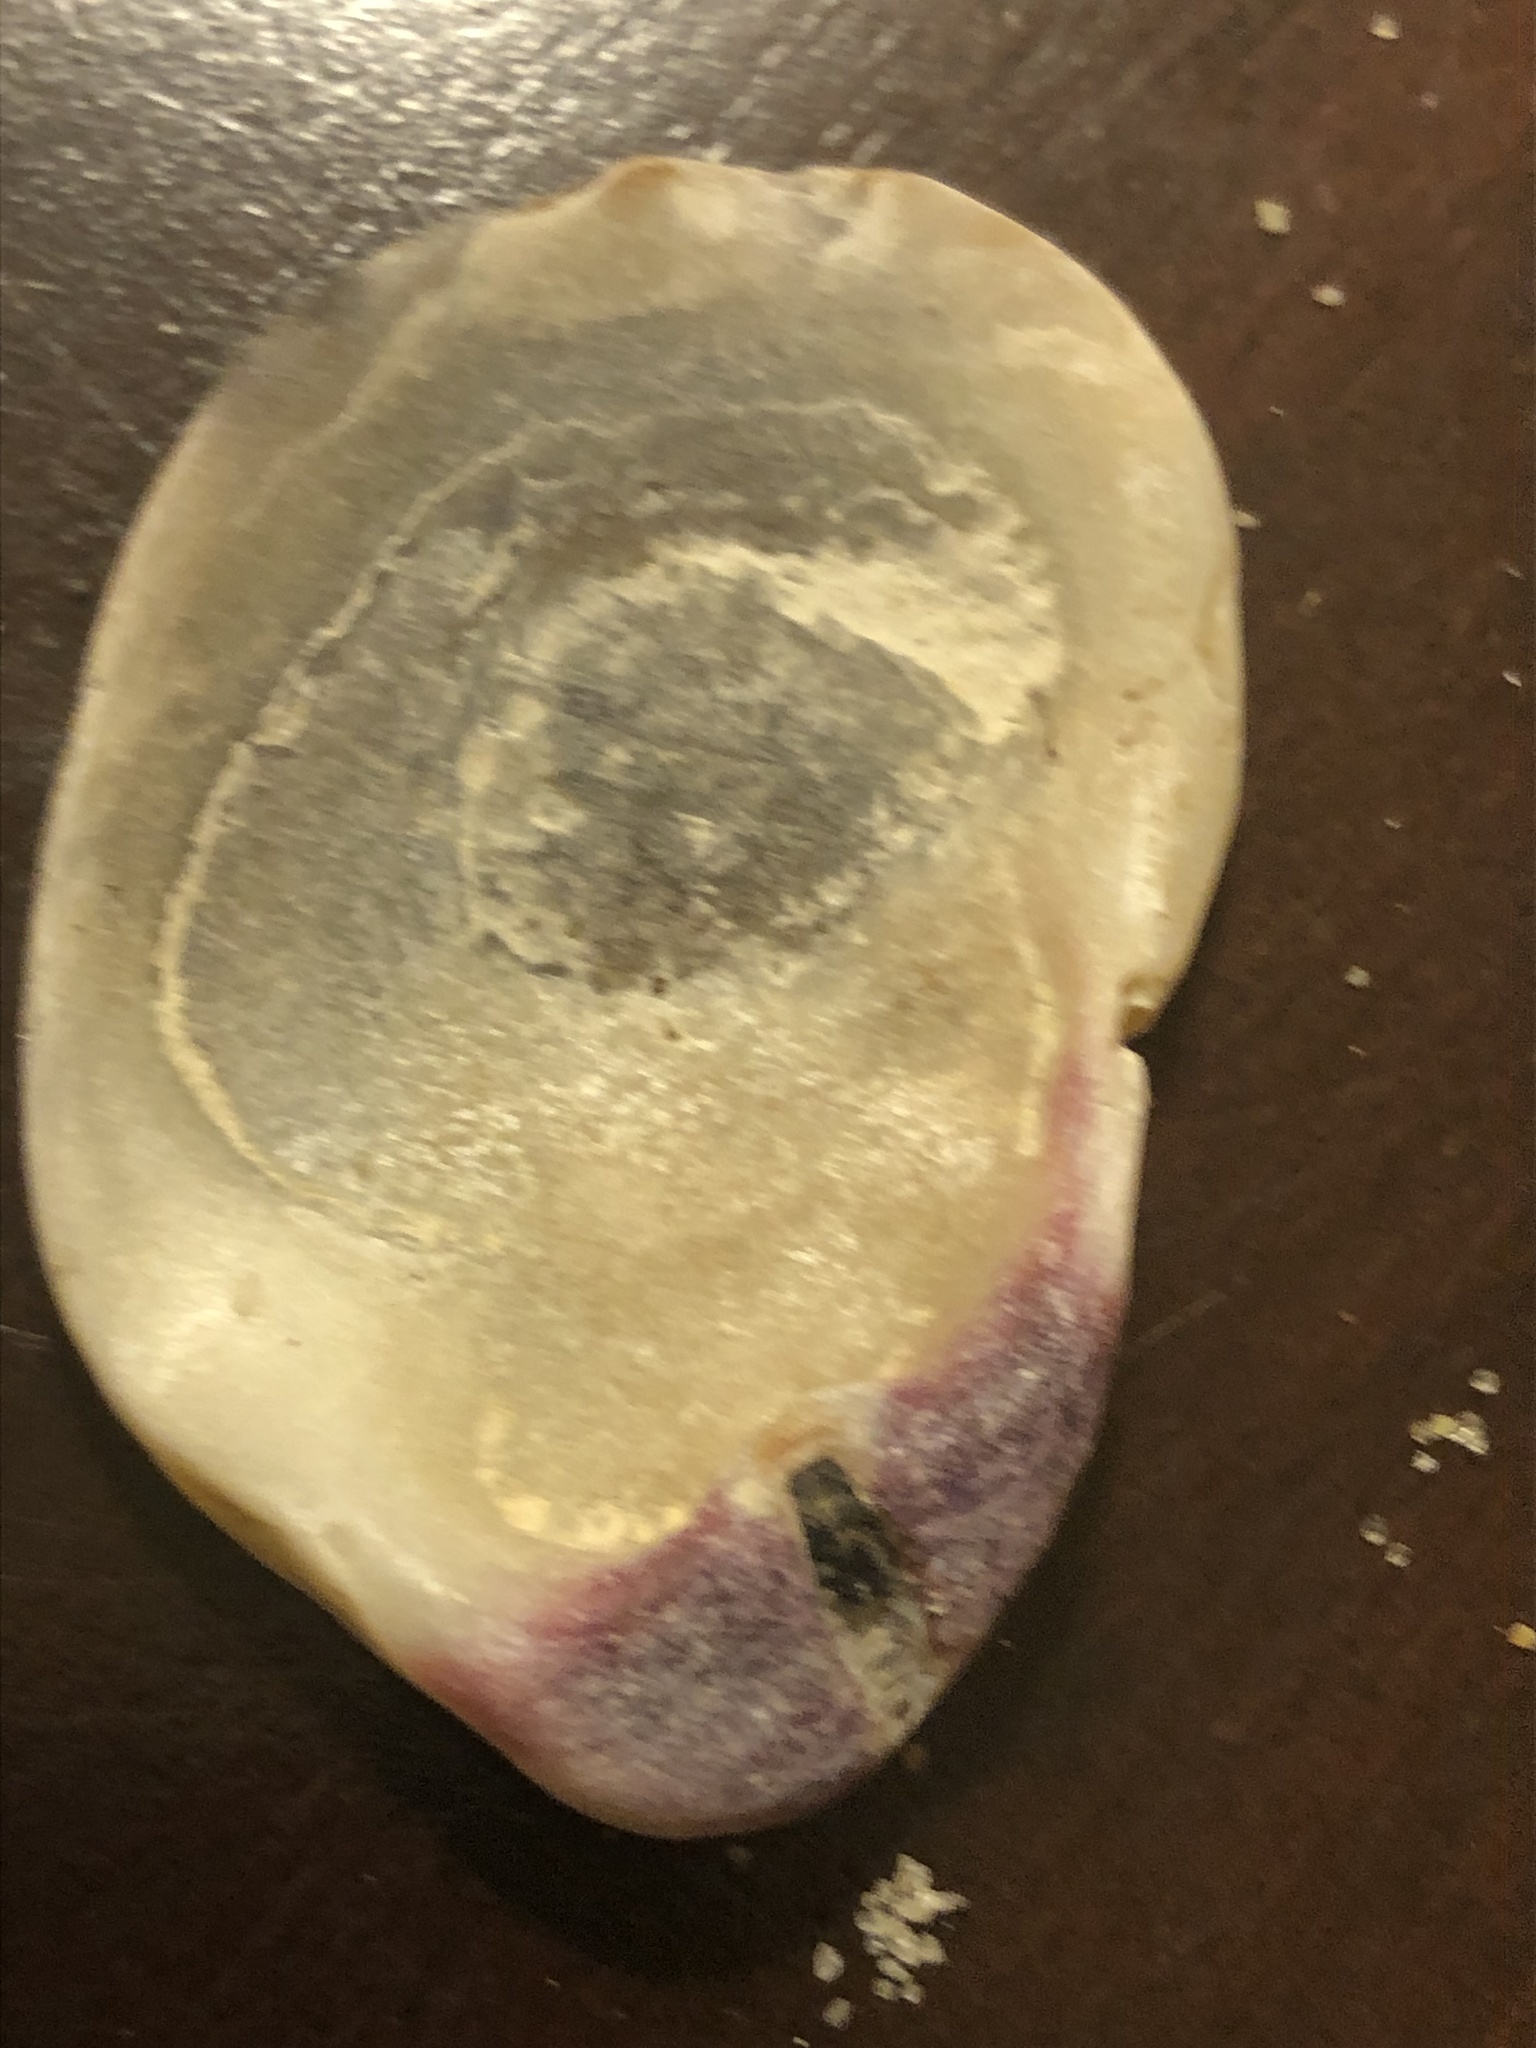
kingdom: Animalia
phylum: Mollusca
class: Bivalvia
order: Pectinida
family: Pectinidae
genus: Crassadoma
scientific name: Crassadoma gigantea
